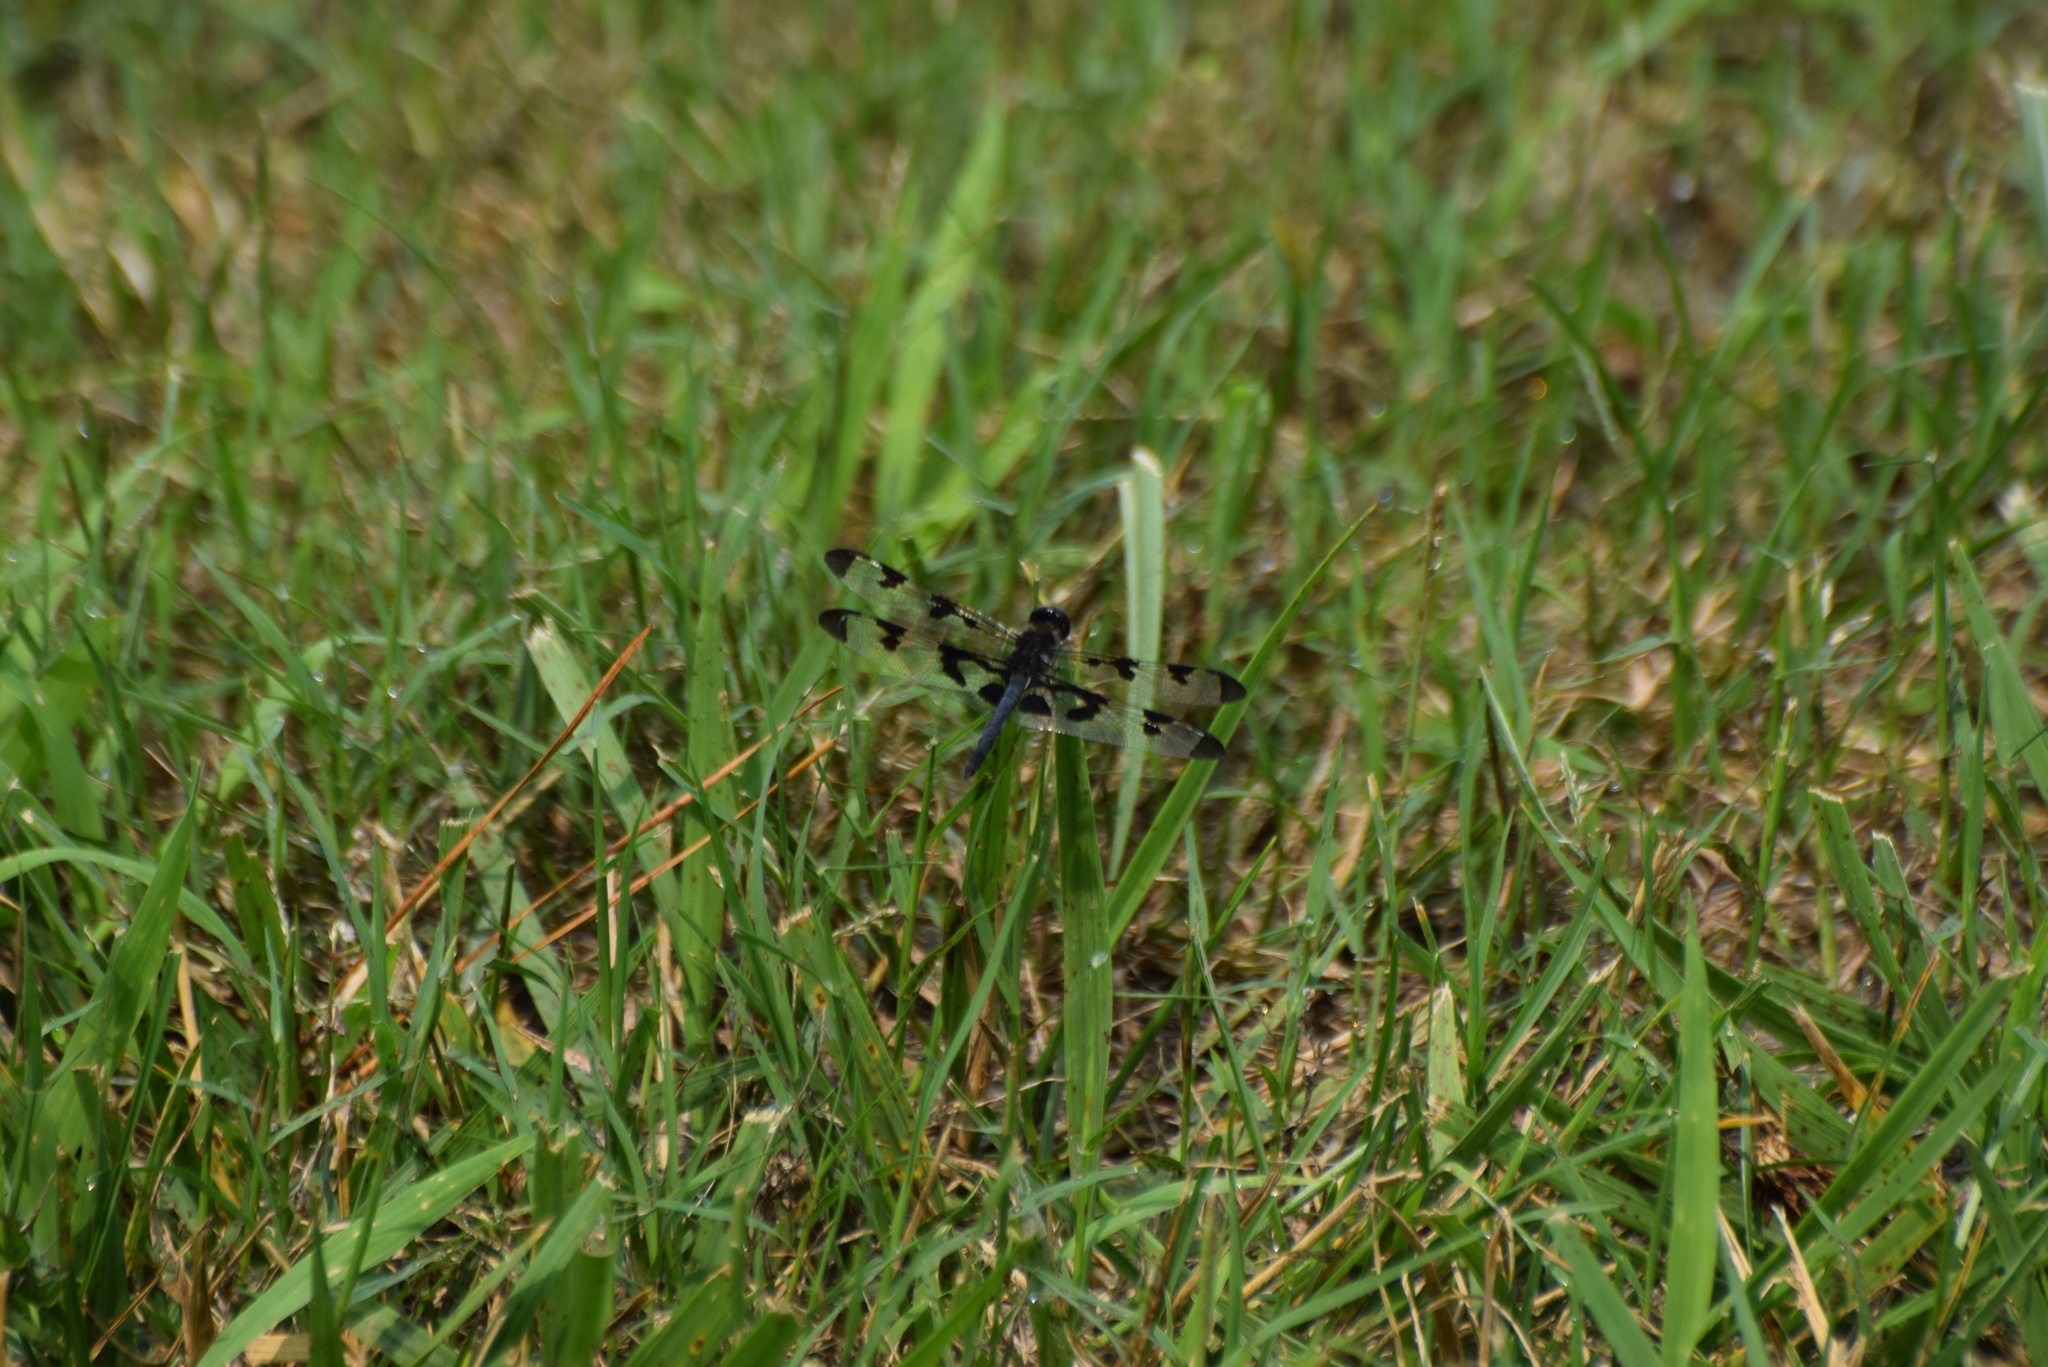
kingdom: Animalia
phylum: Arthropoda
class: Insecta
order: Odonata
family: Libellulidae
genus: Celithemis
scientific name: Celithemis fasciata
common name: Banded pennant
